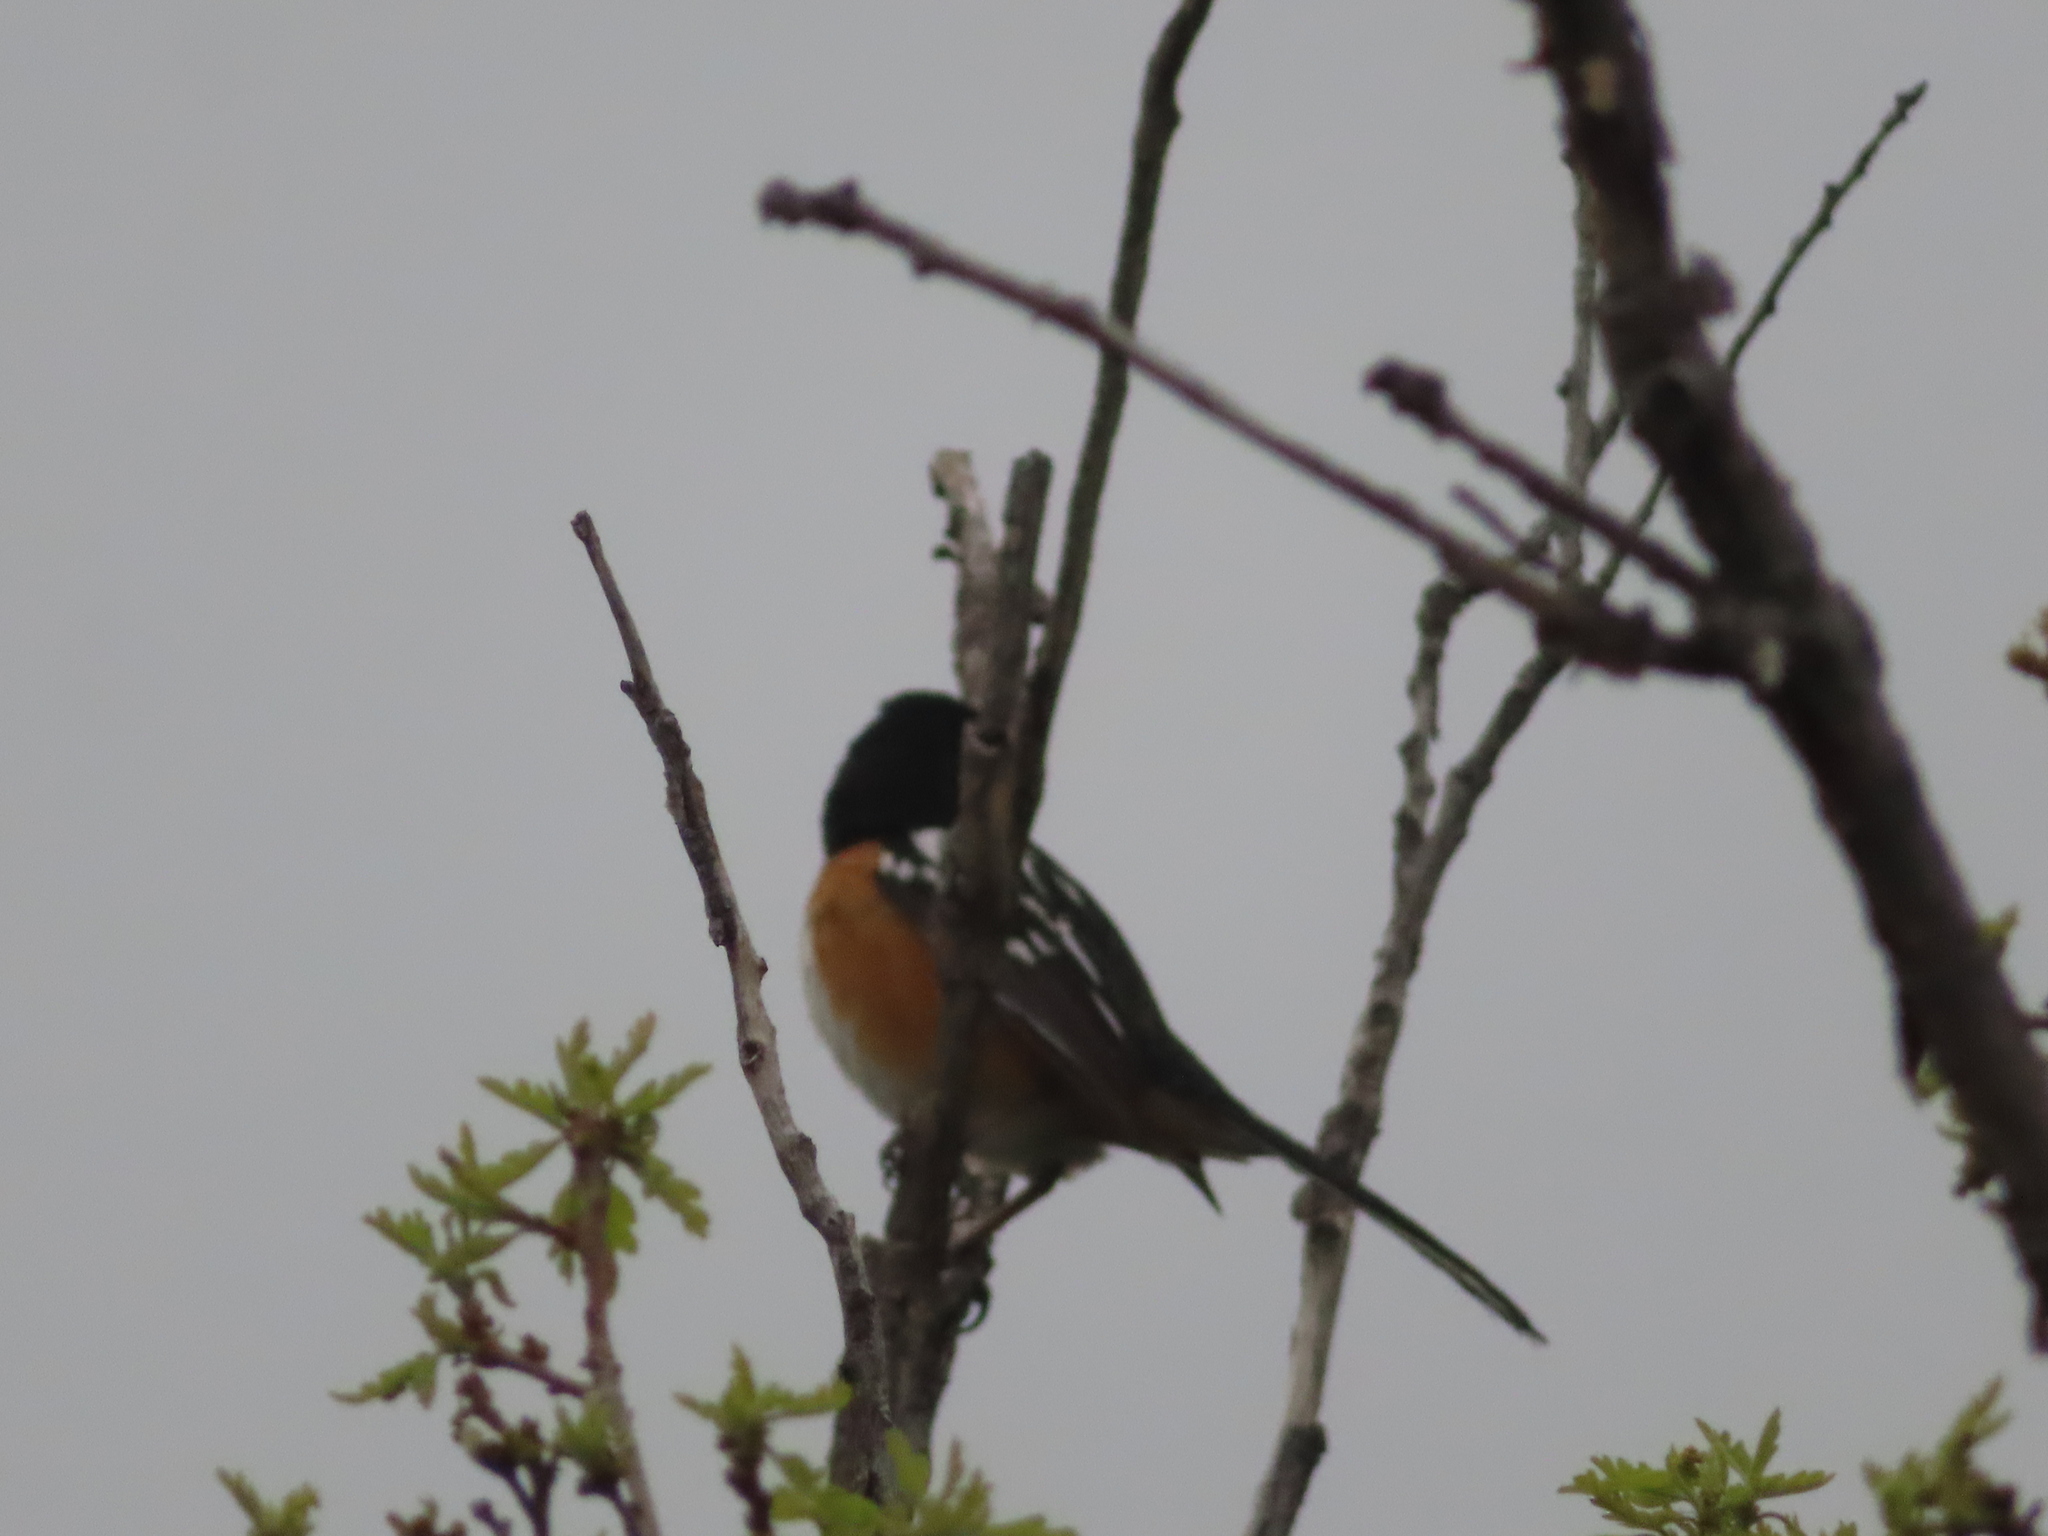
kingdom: Animalia
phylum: Chordata
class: Aves
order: Passeriformes
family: Passerellidae
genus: Pipilo
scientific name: Pipilo maculatus
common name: Spotted towhee
